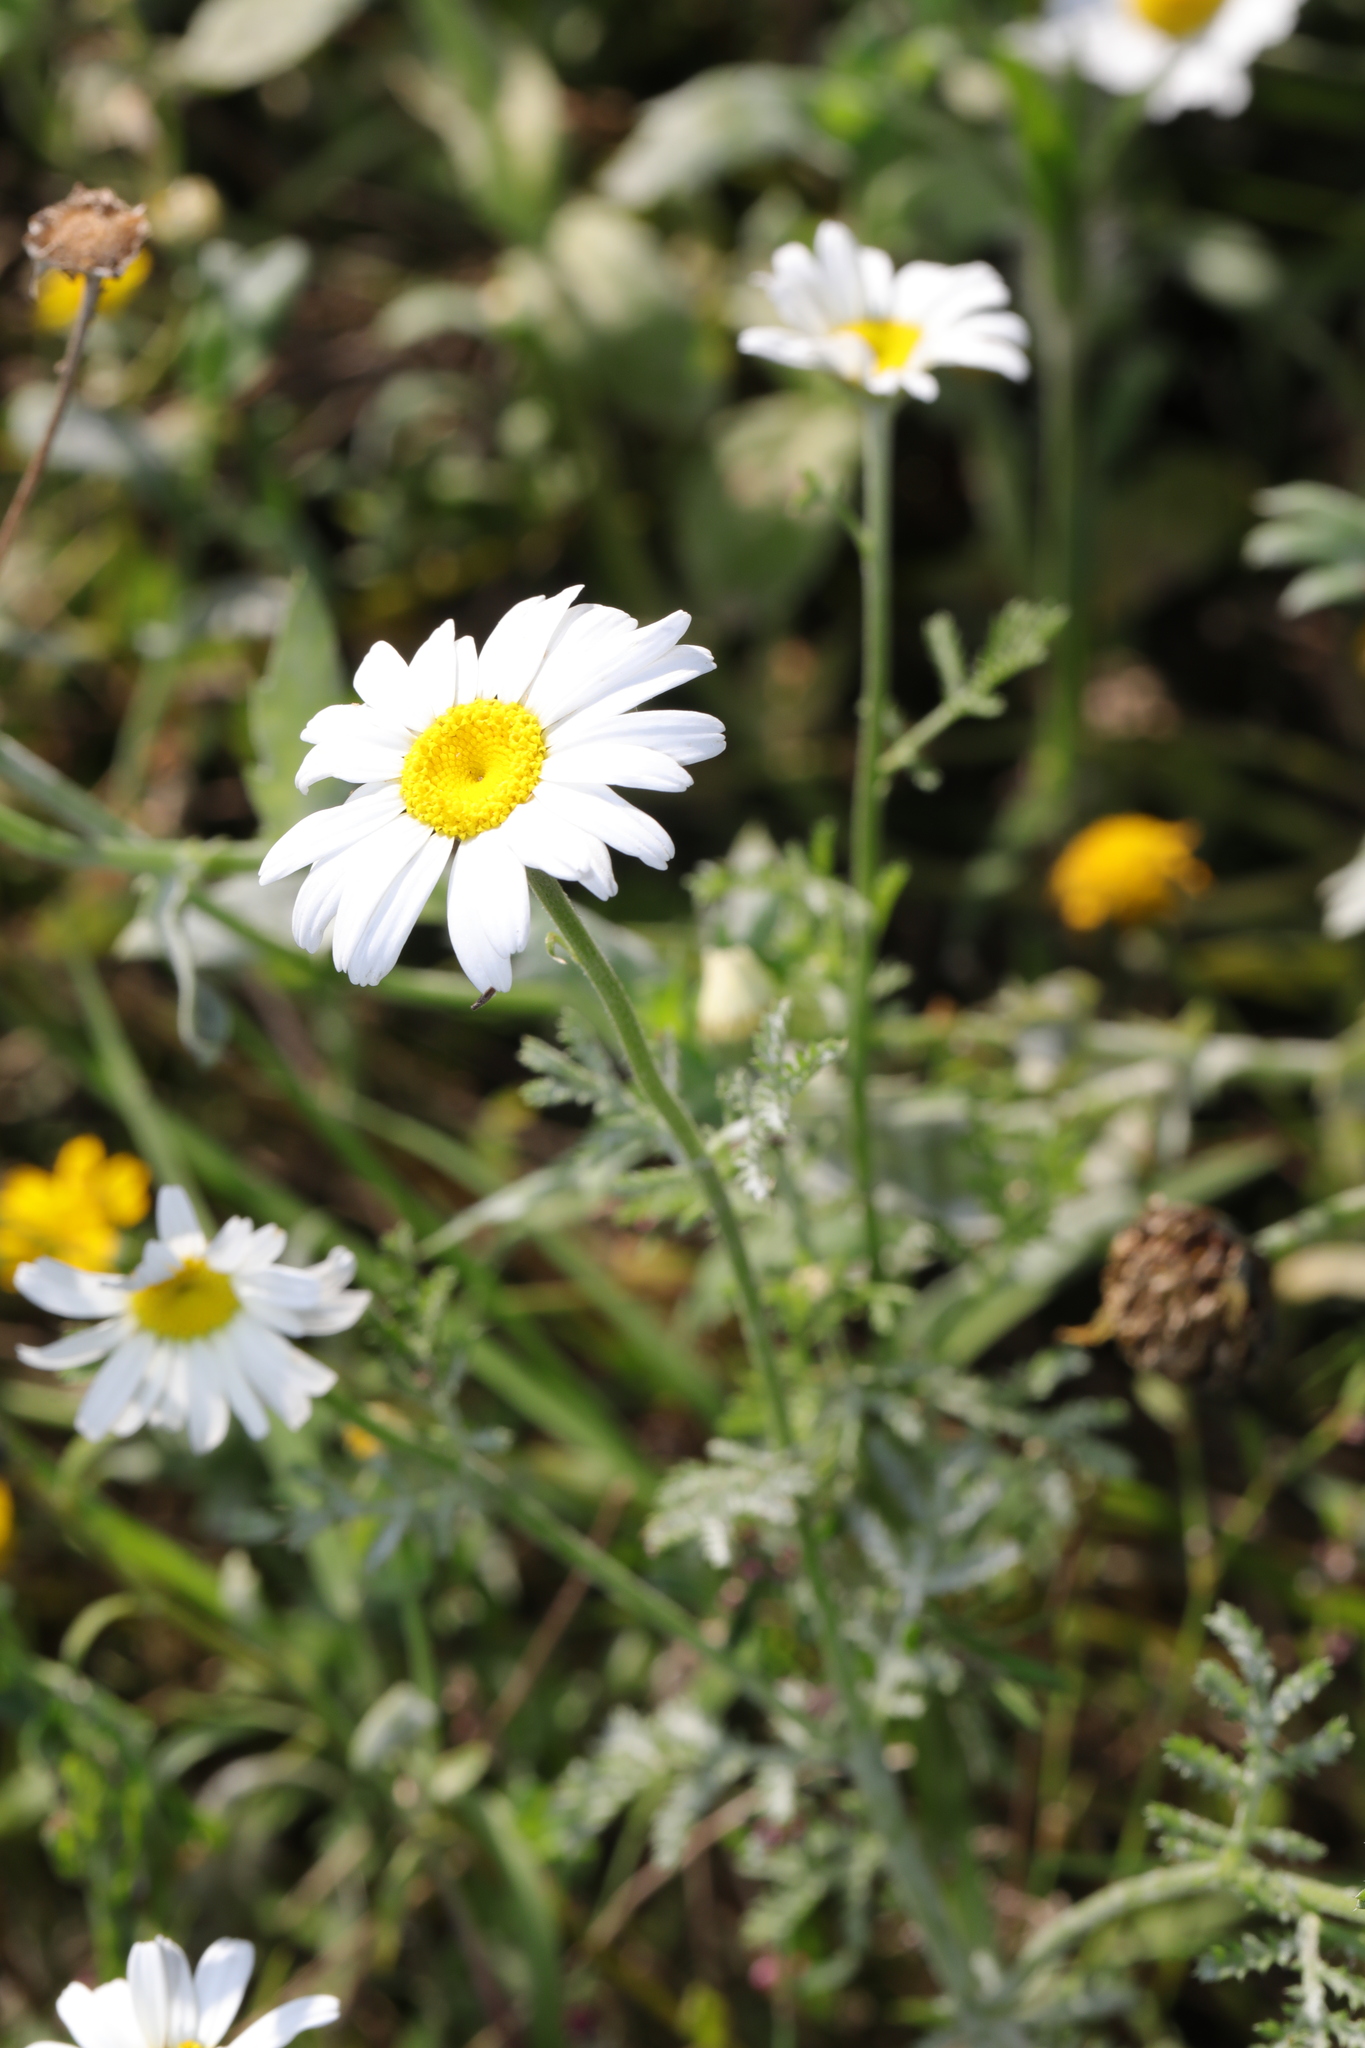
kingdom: Plantae
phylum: Tracheophyta
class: Magnoliopsida
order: Asterales
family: Asteraceae
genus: Cota
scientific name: Cota austriaca
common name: Austrian chamomile
